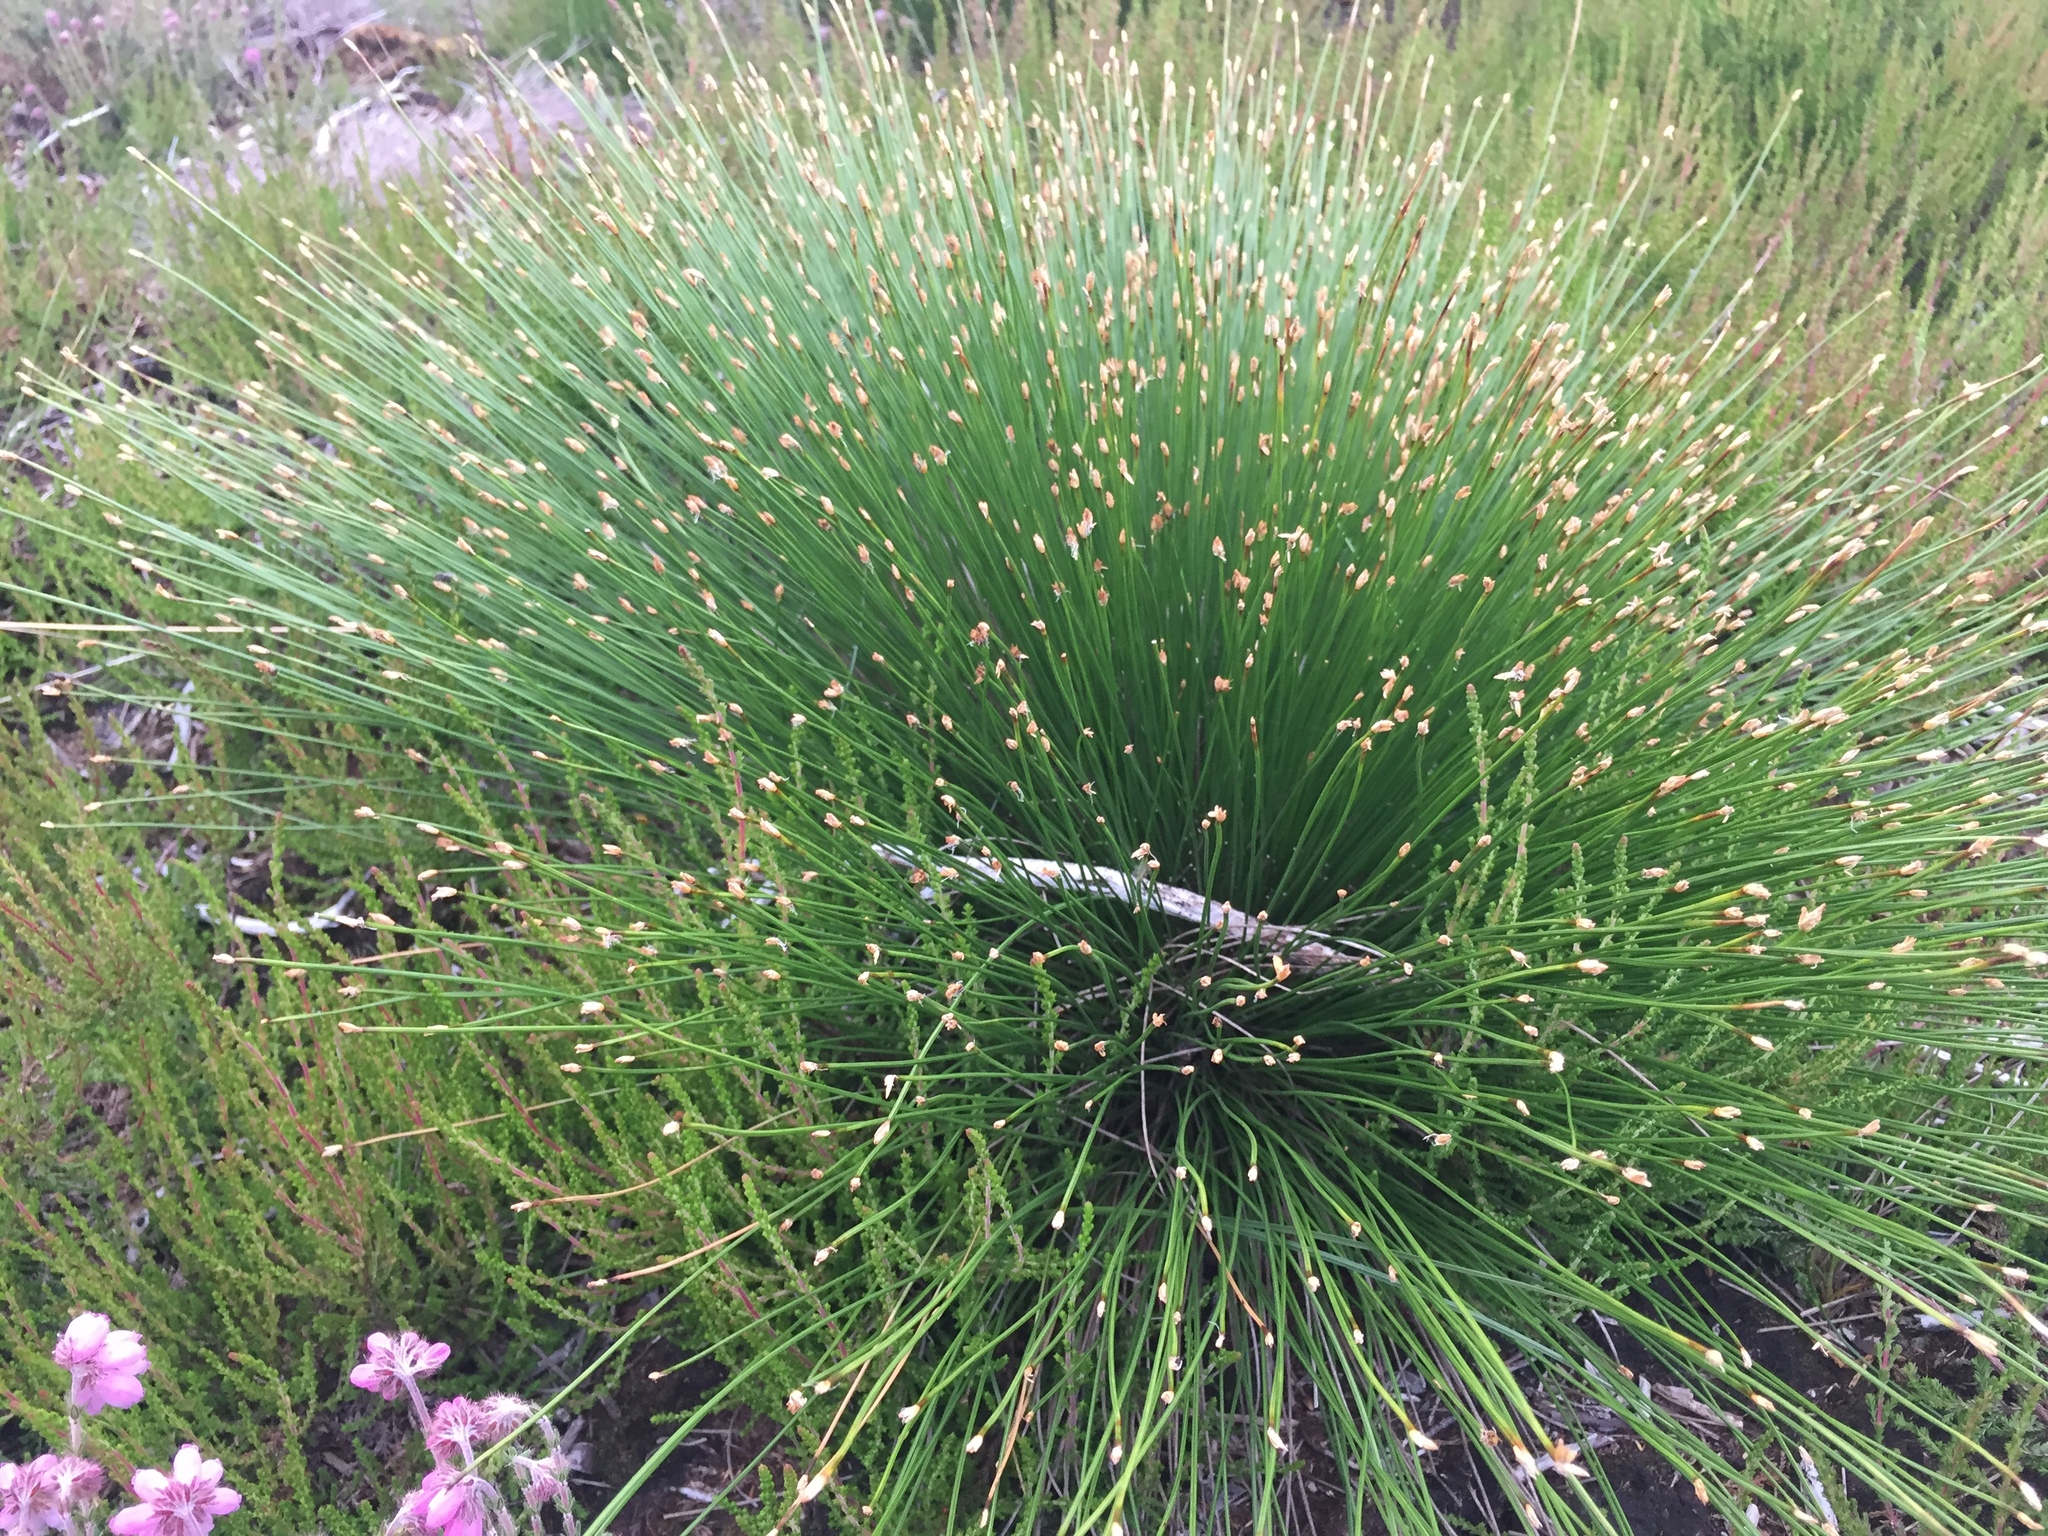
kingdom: Plantae
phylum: Tracheophyta
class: Liliopsida
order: Poales
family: Cyperaceae
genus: Trichophorum
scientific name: Trichophorum cespitosum
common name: Cespitose bulrush
